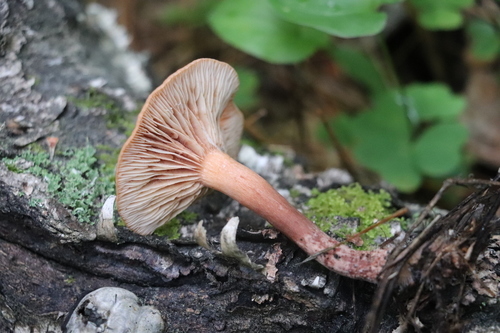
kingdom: Fungi
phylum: Basidiomycota
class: Agaricomycetes
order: Russulales
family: Russulaceae
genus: Lactarius
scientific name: Lactarius aurantiacus
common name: Orange milkcap
